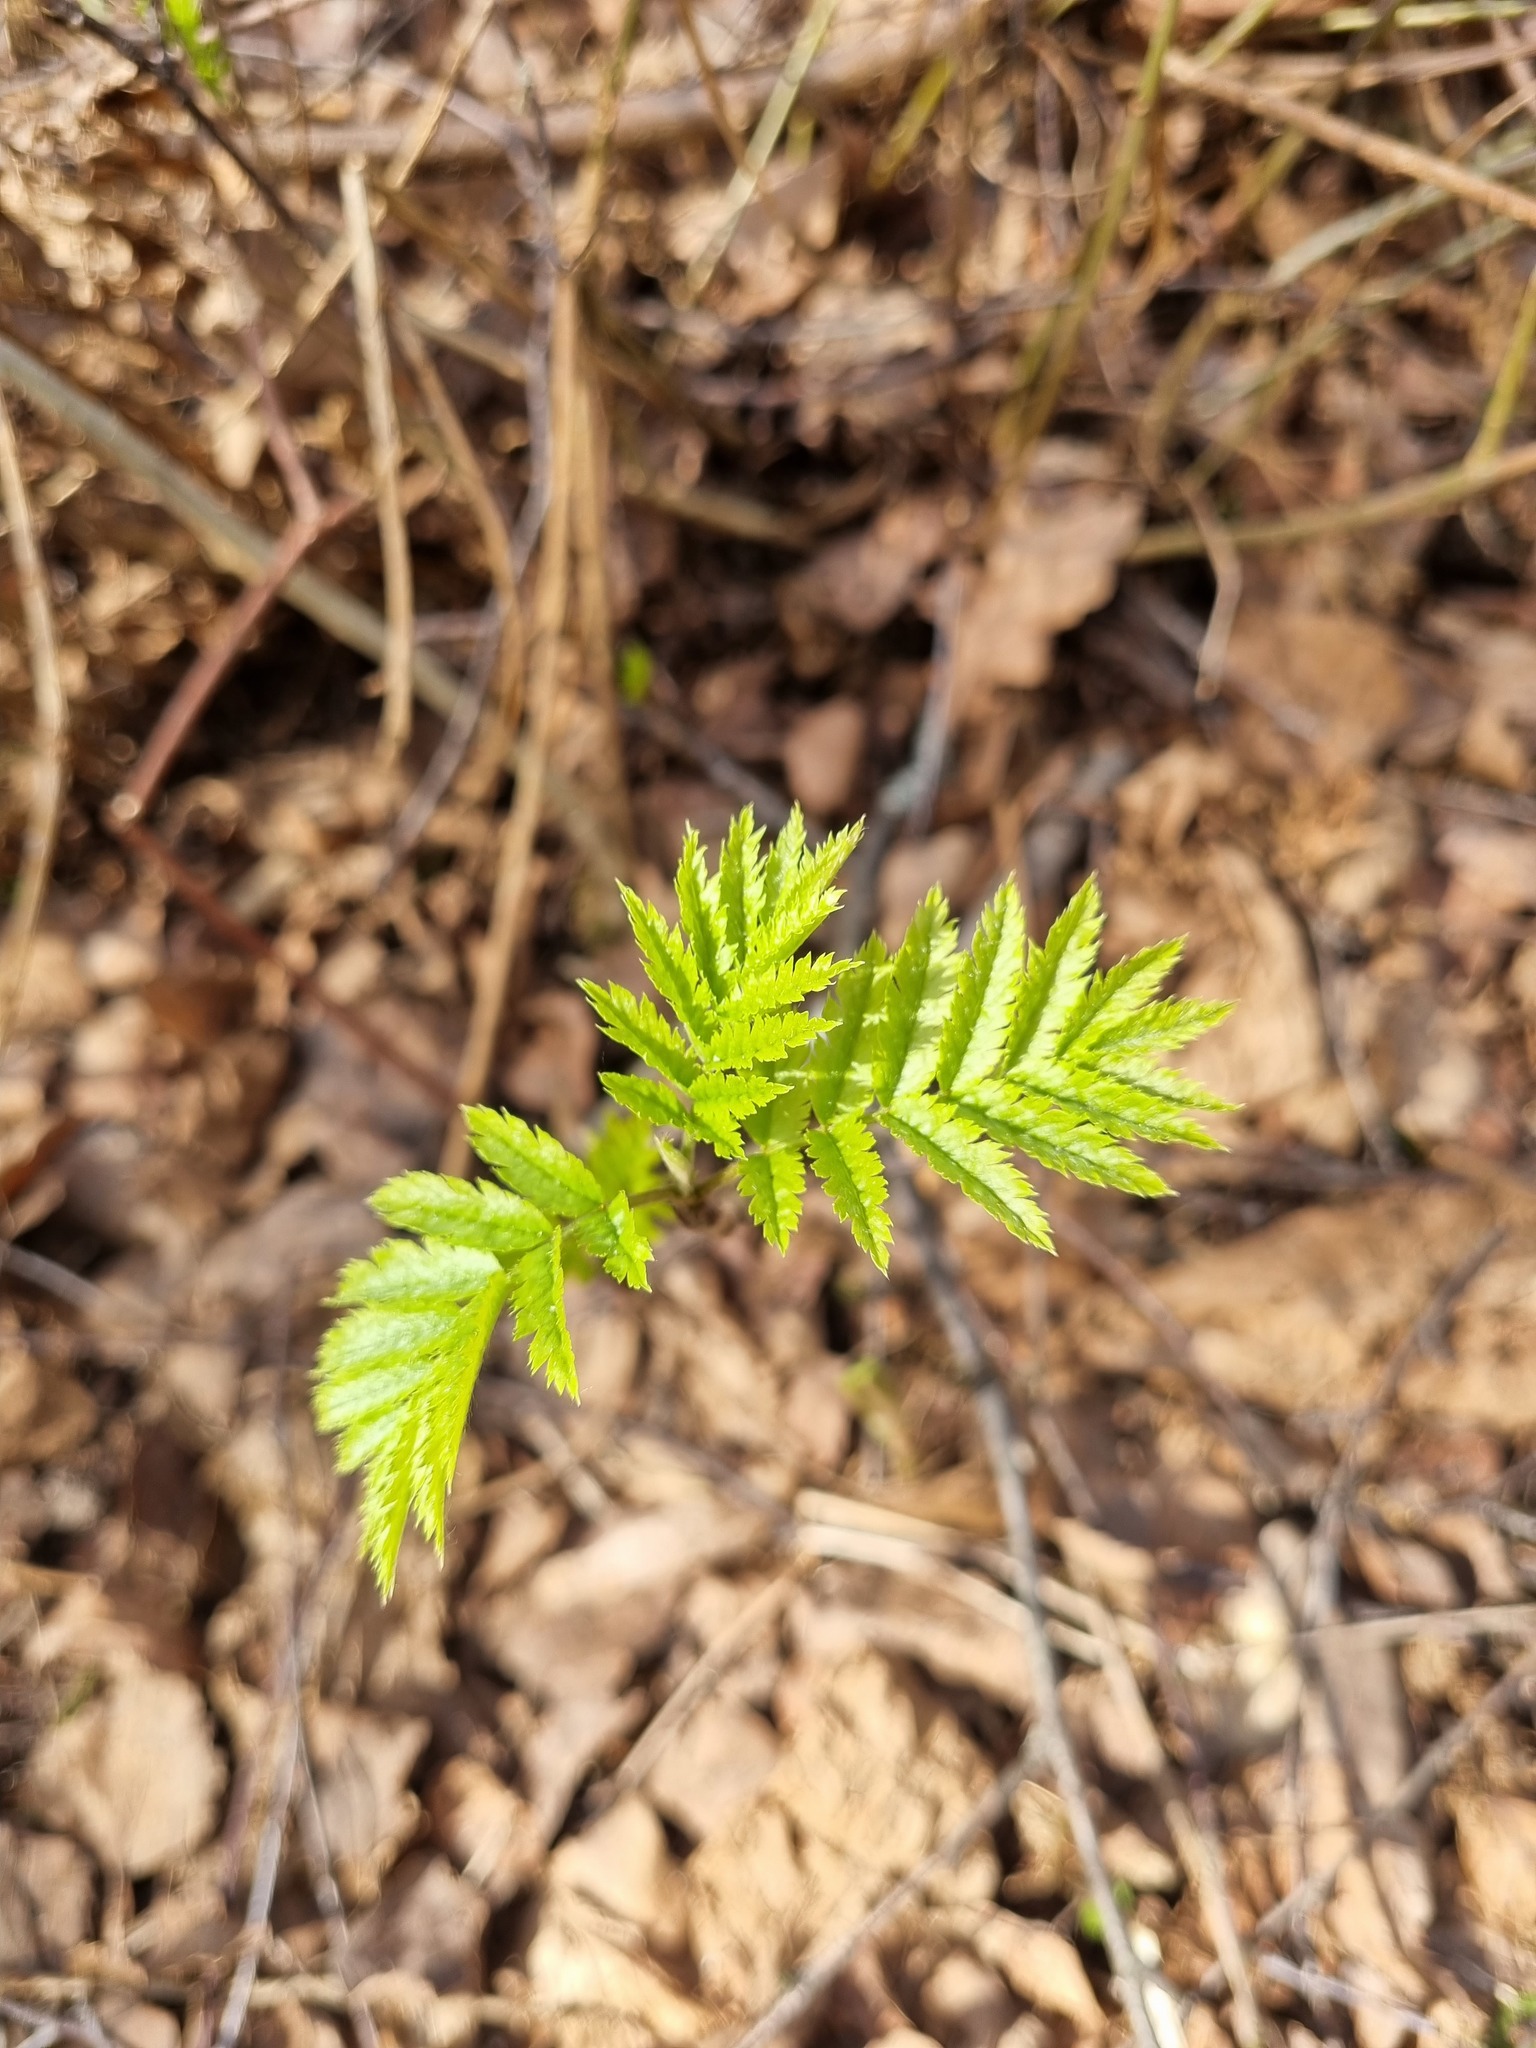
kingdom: Plantae
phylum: Tracheophyta
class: Magnoliopsida
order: Rosales
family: Rosaceae
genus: Sorbus
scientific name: Sorbus aucuparia
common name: Rowan
